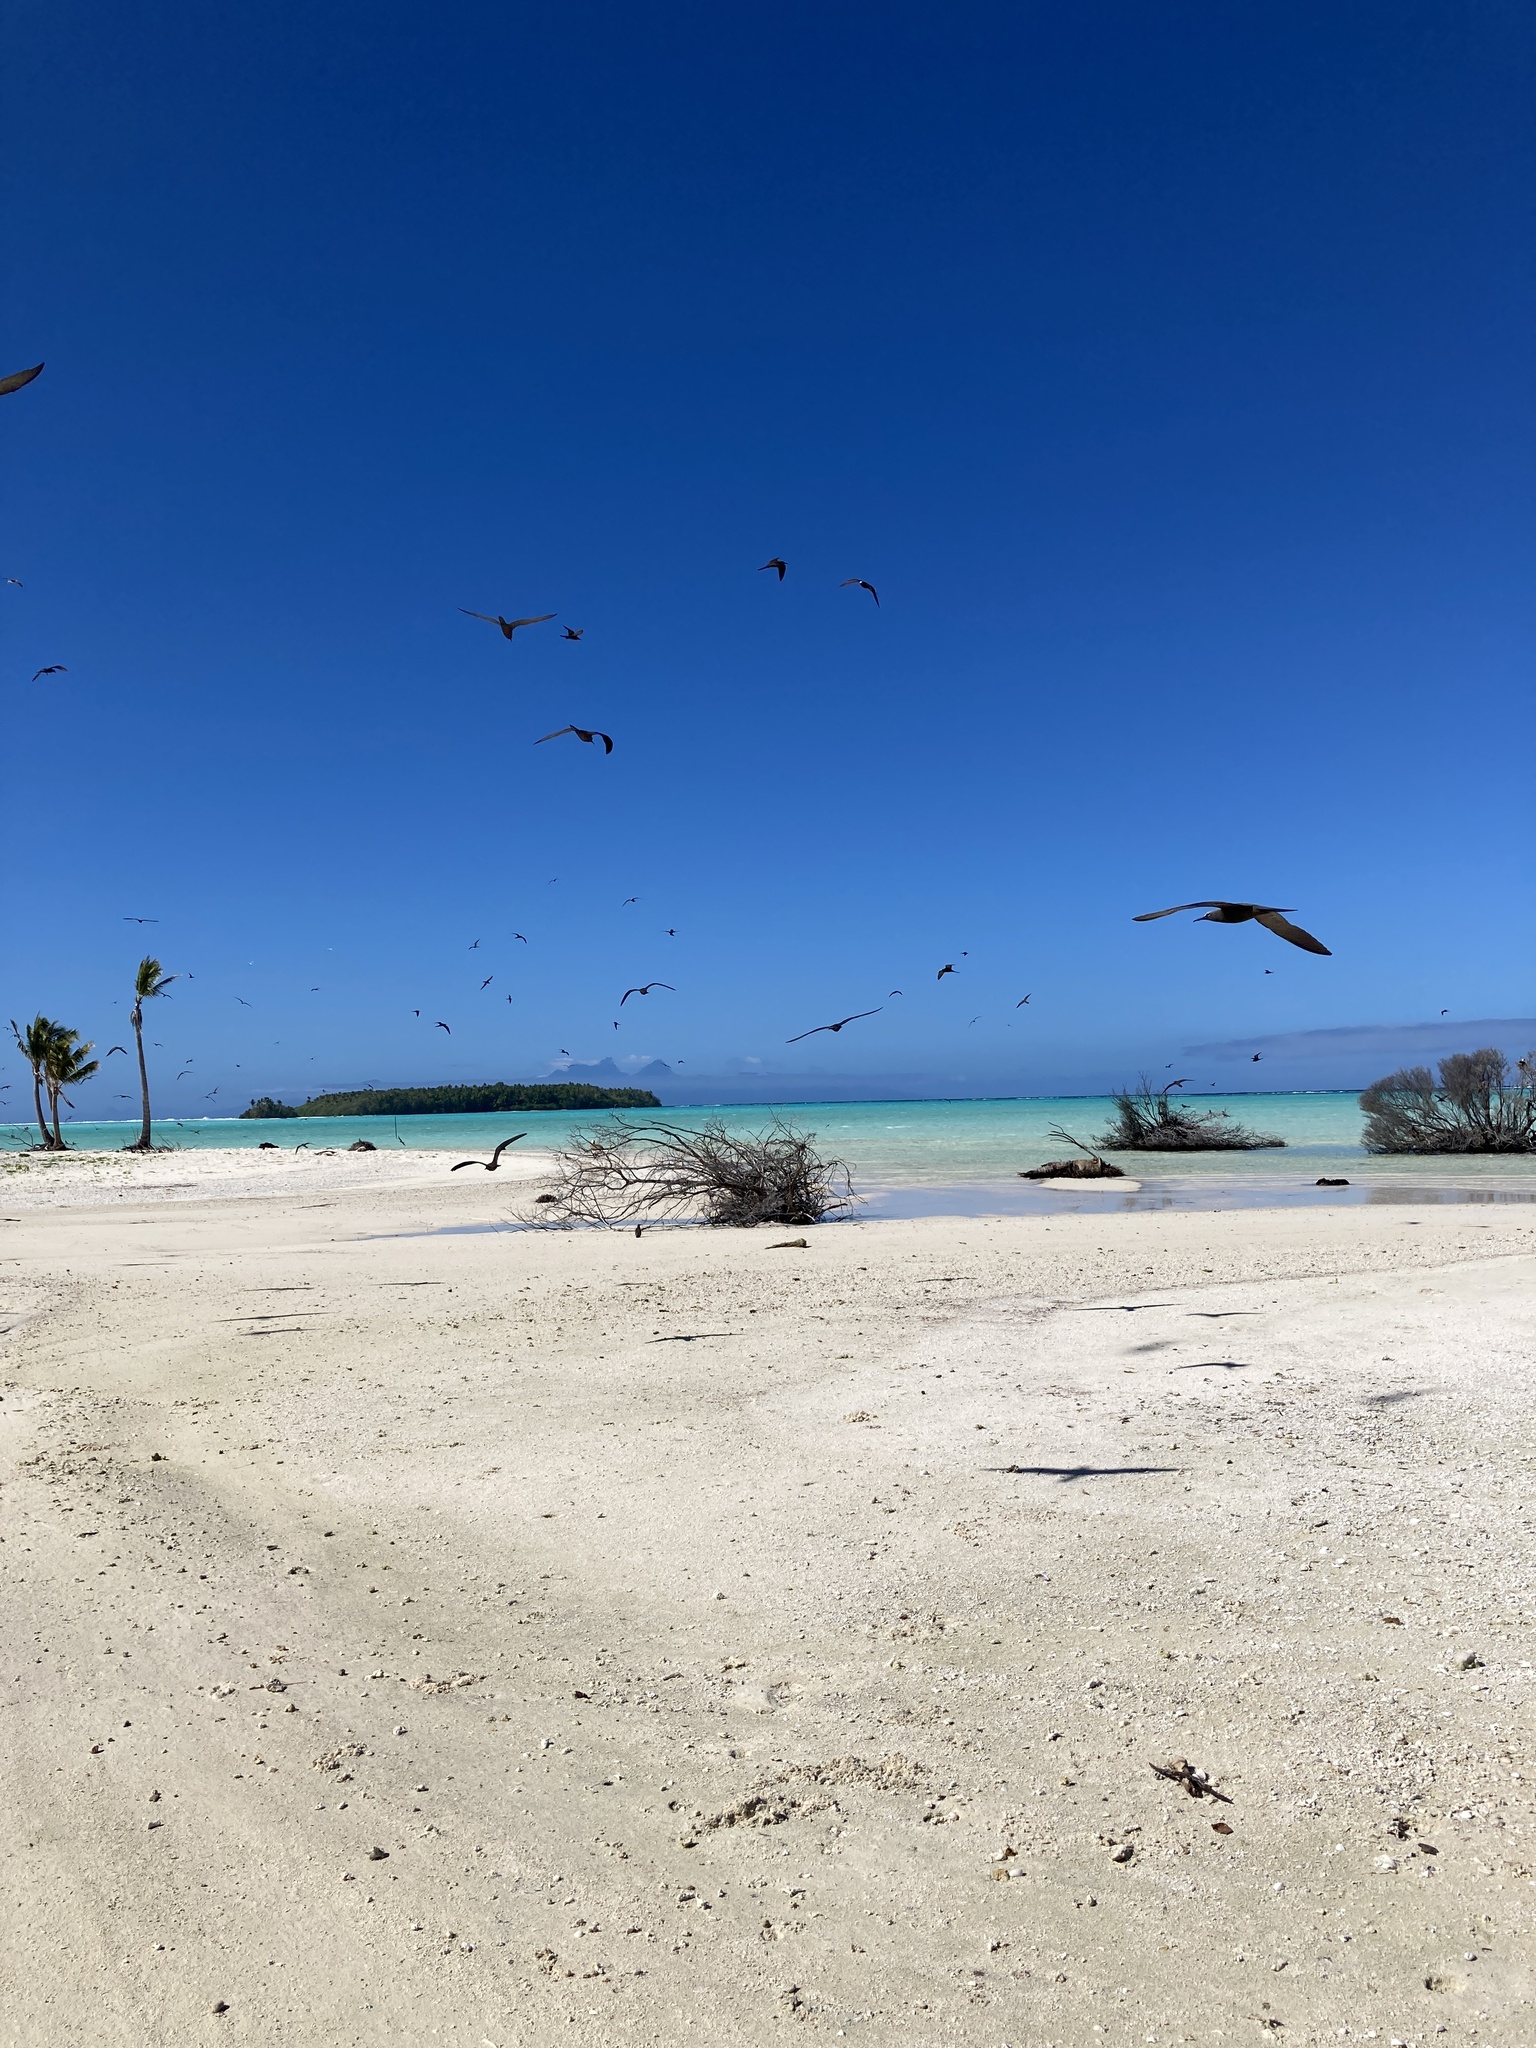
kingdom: Animalia
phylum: Chordata
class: Aves
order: Charadriiformes
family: Laridae
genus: Anous
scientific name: Anous stolidus
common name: Brown noddy
